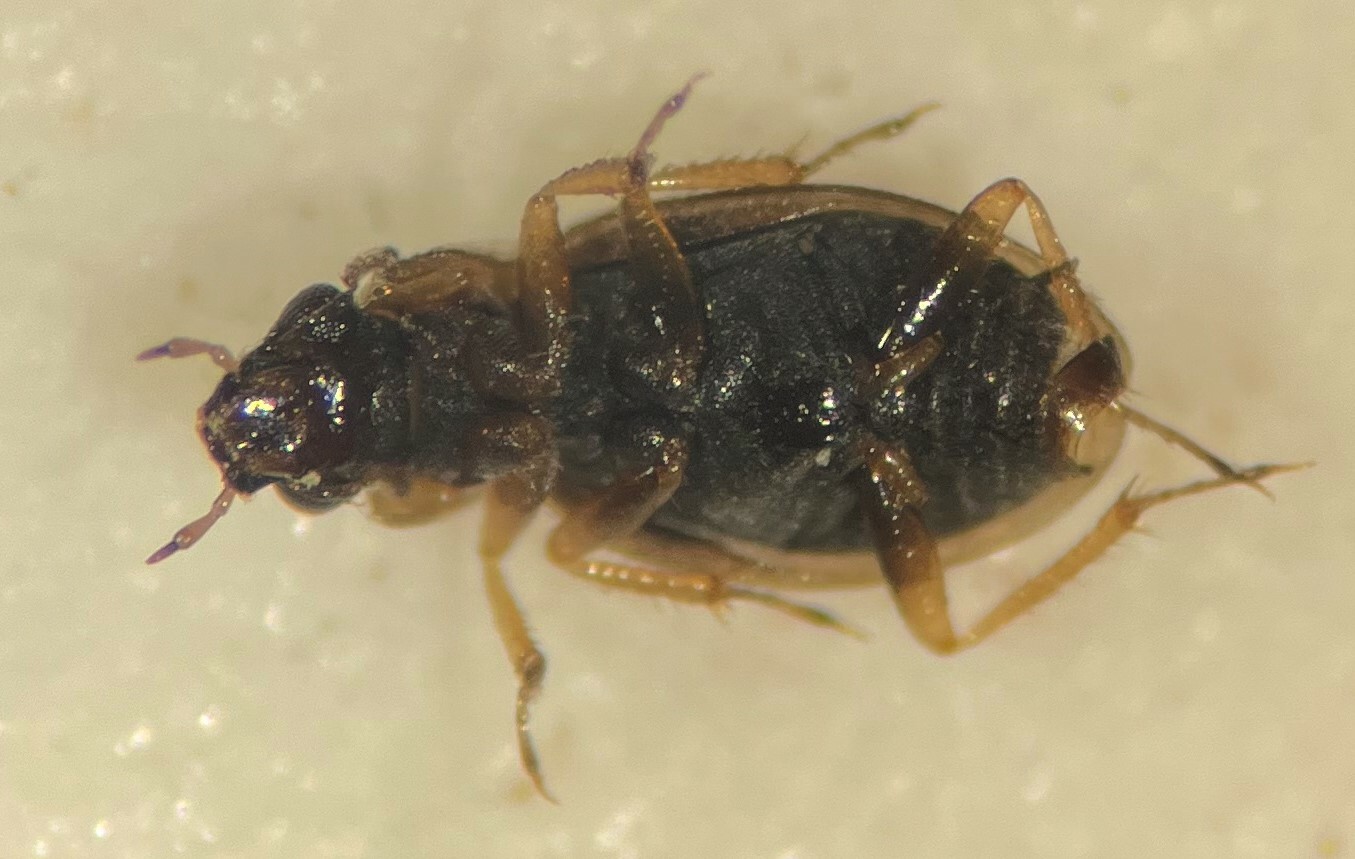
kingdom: Animalia
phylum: Arthropoda
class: Insecta
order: Coleoptera
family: Hydraenidae
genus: Ochthebius
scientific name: Ochthebius lineatus
